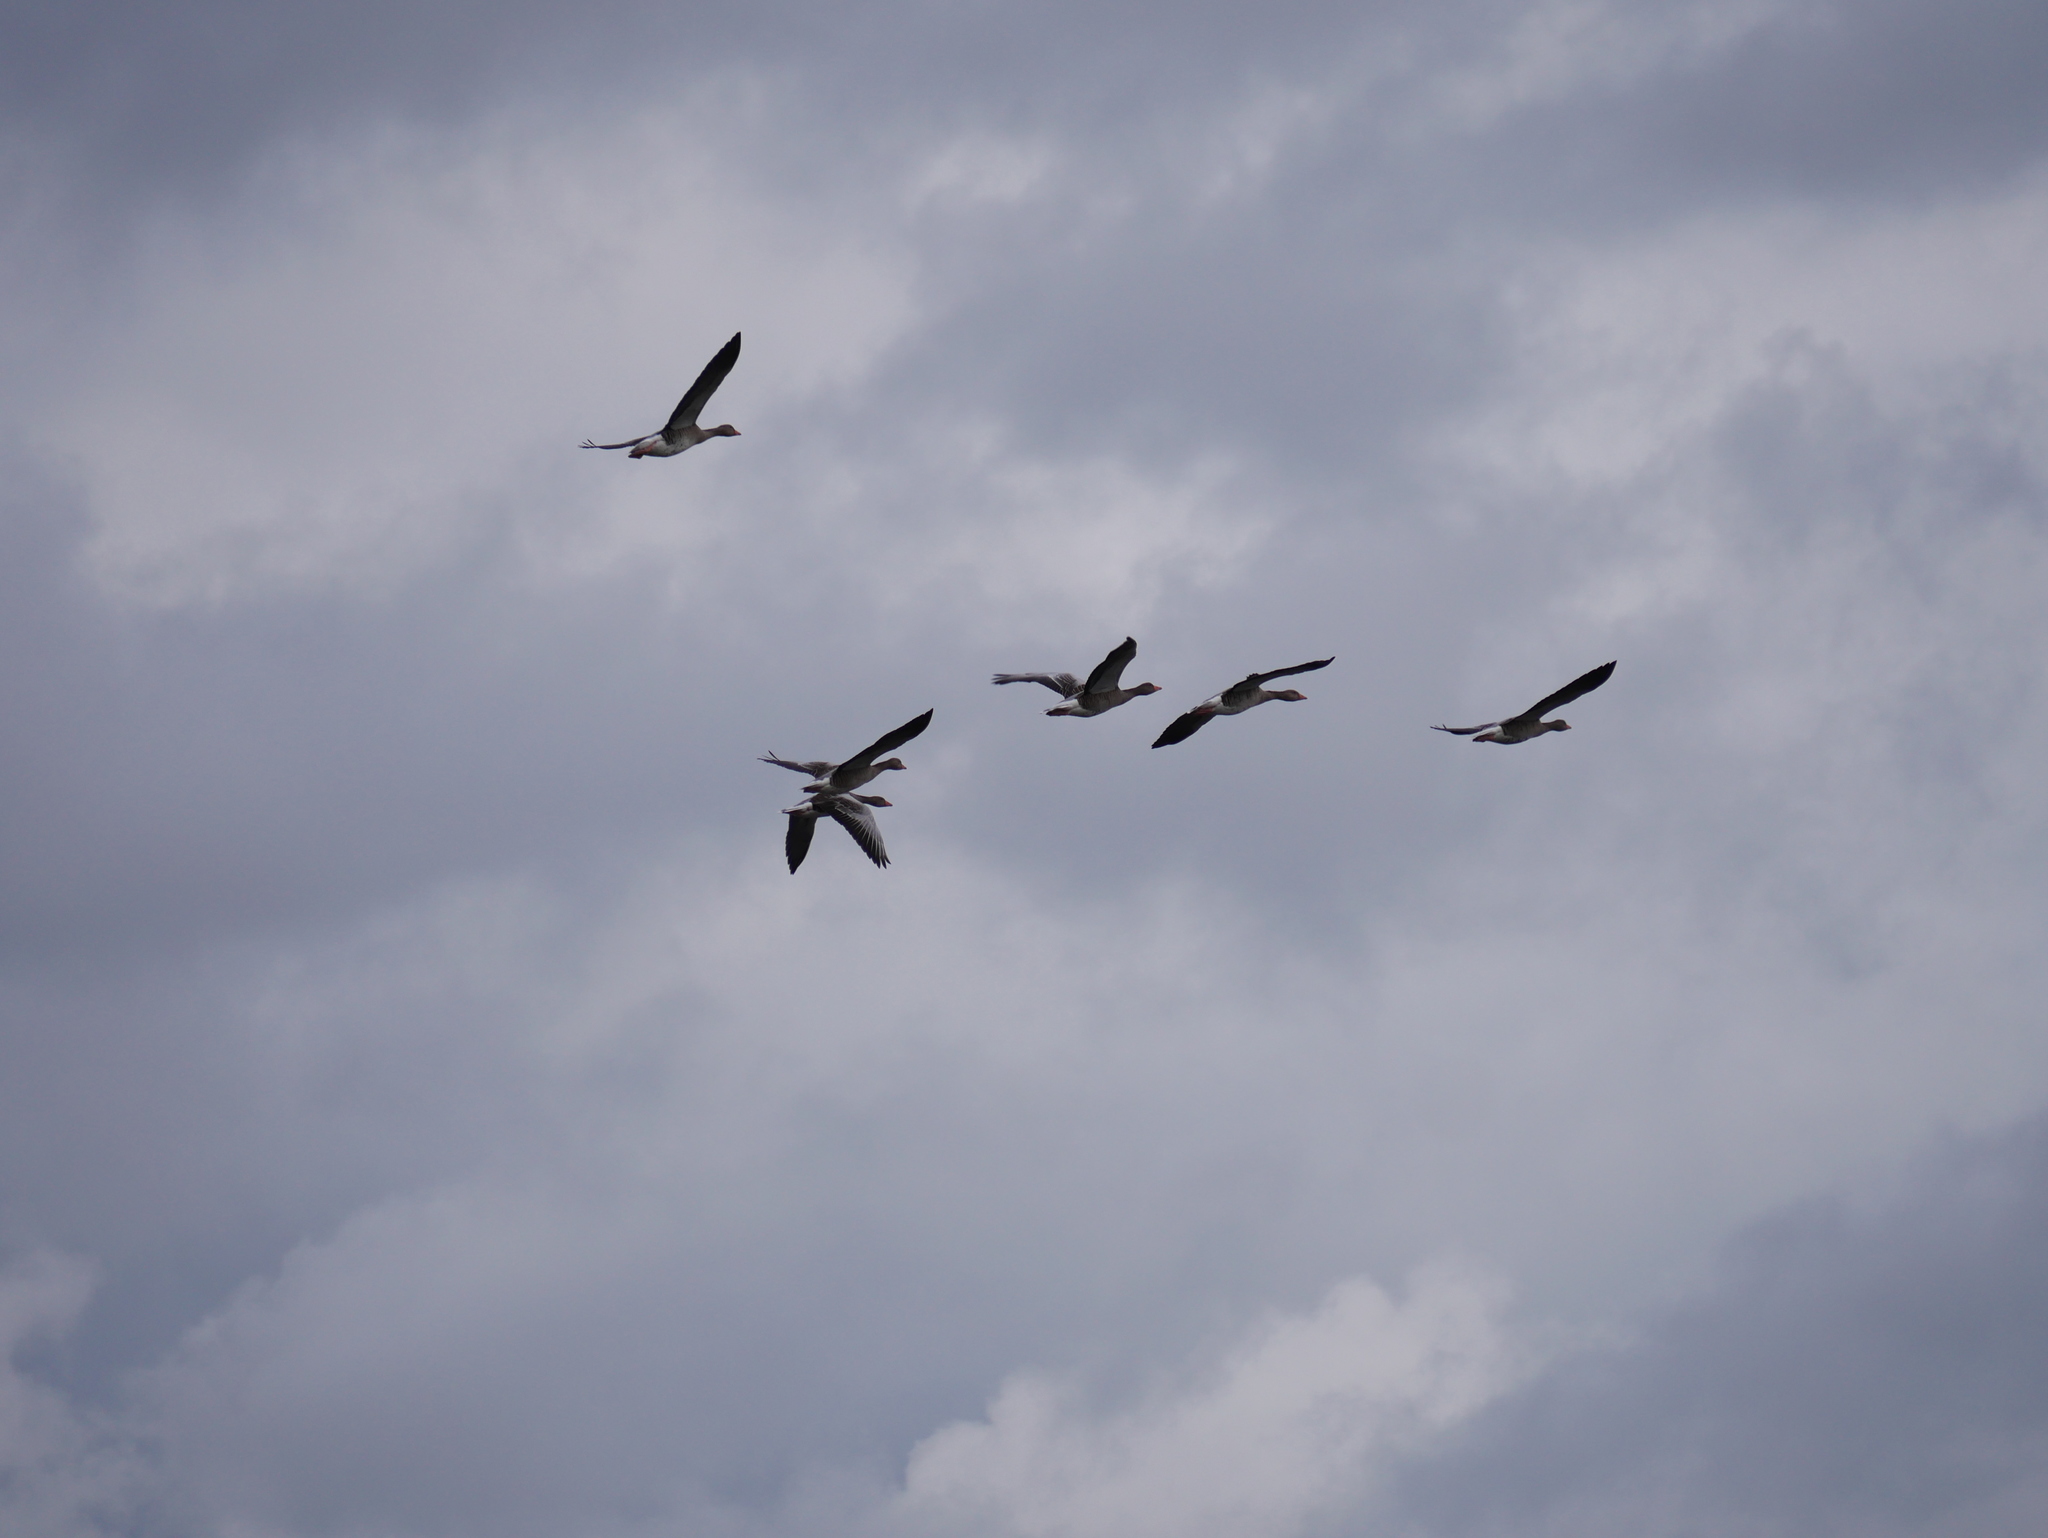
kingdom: Animalia
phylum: Chordata
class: Aves
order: Anseriformes
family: Anatidae
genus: Anser
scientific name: Anser anser
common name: Greylag goose
